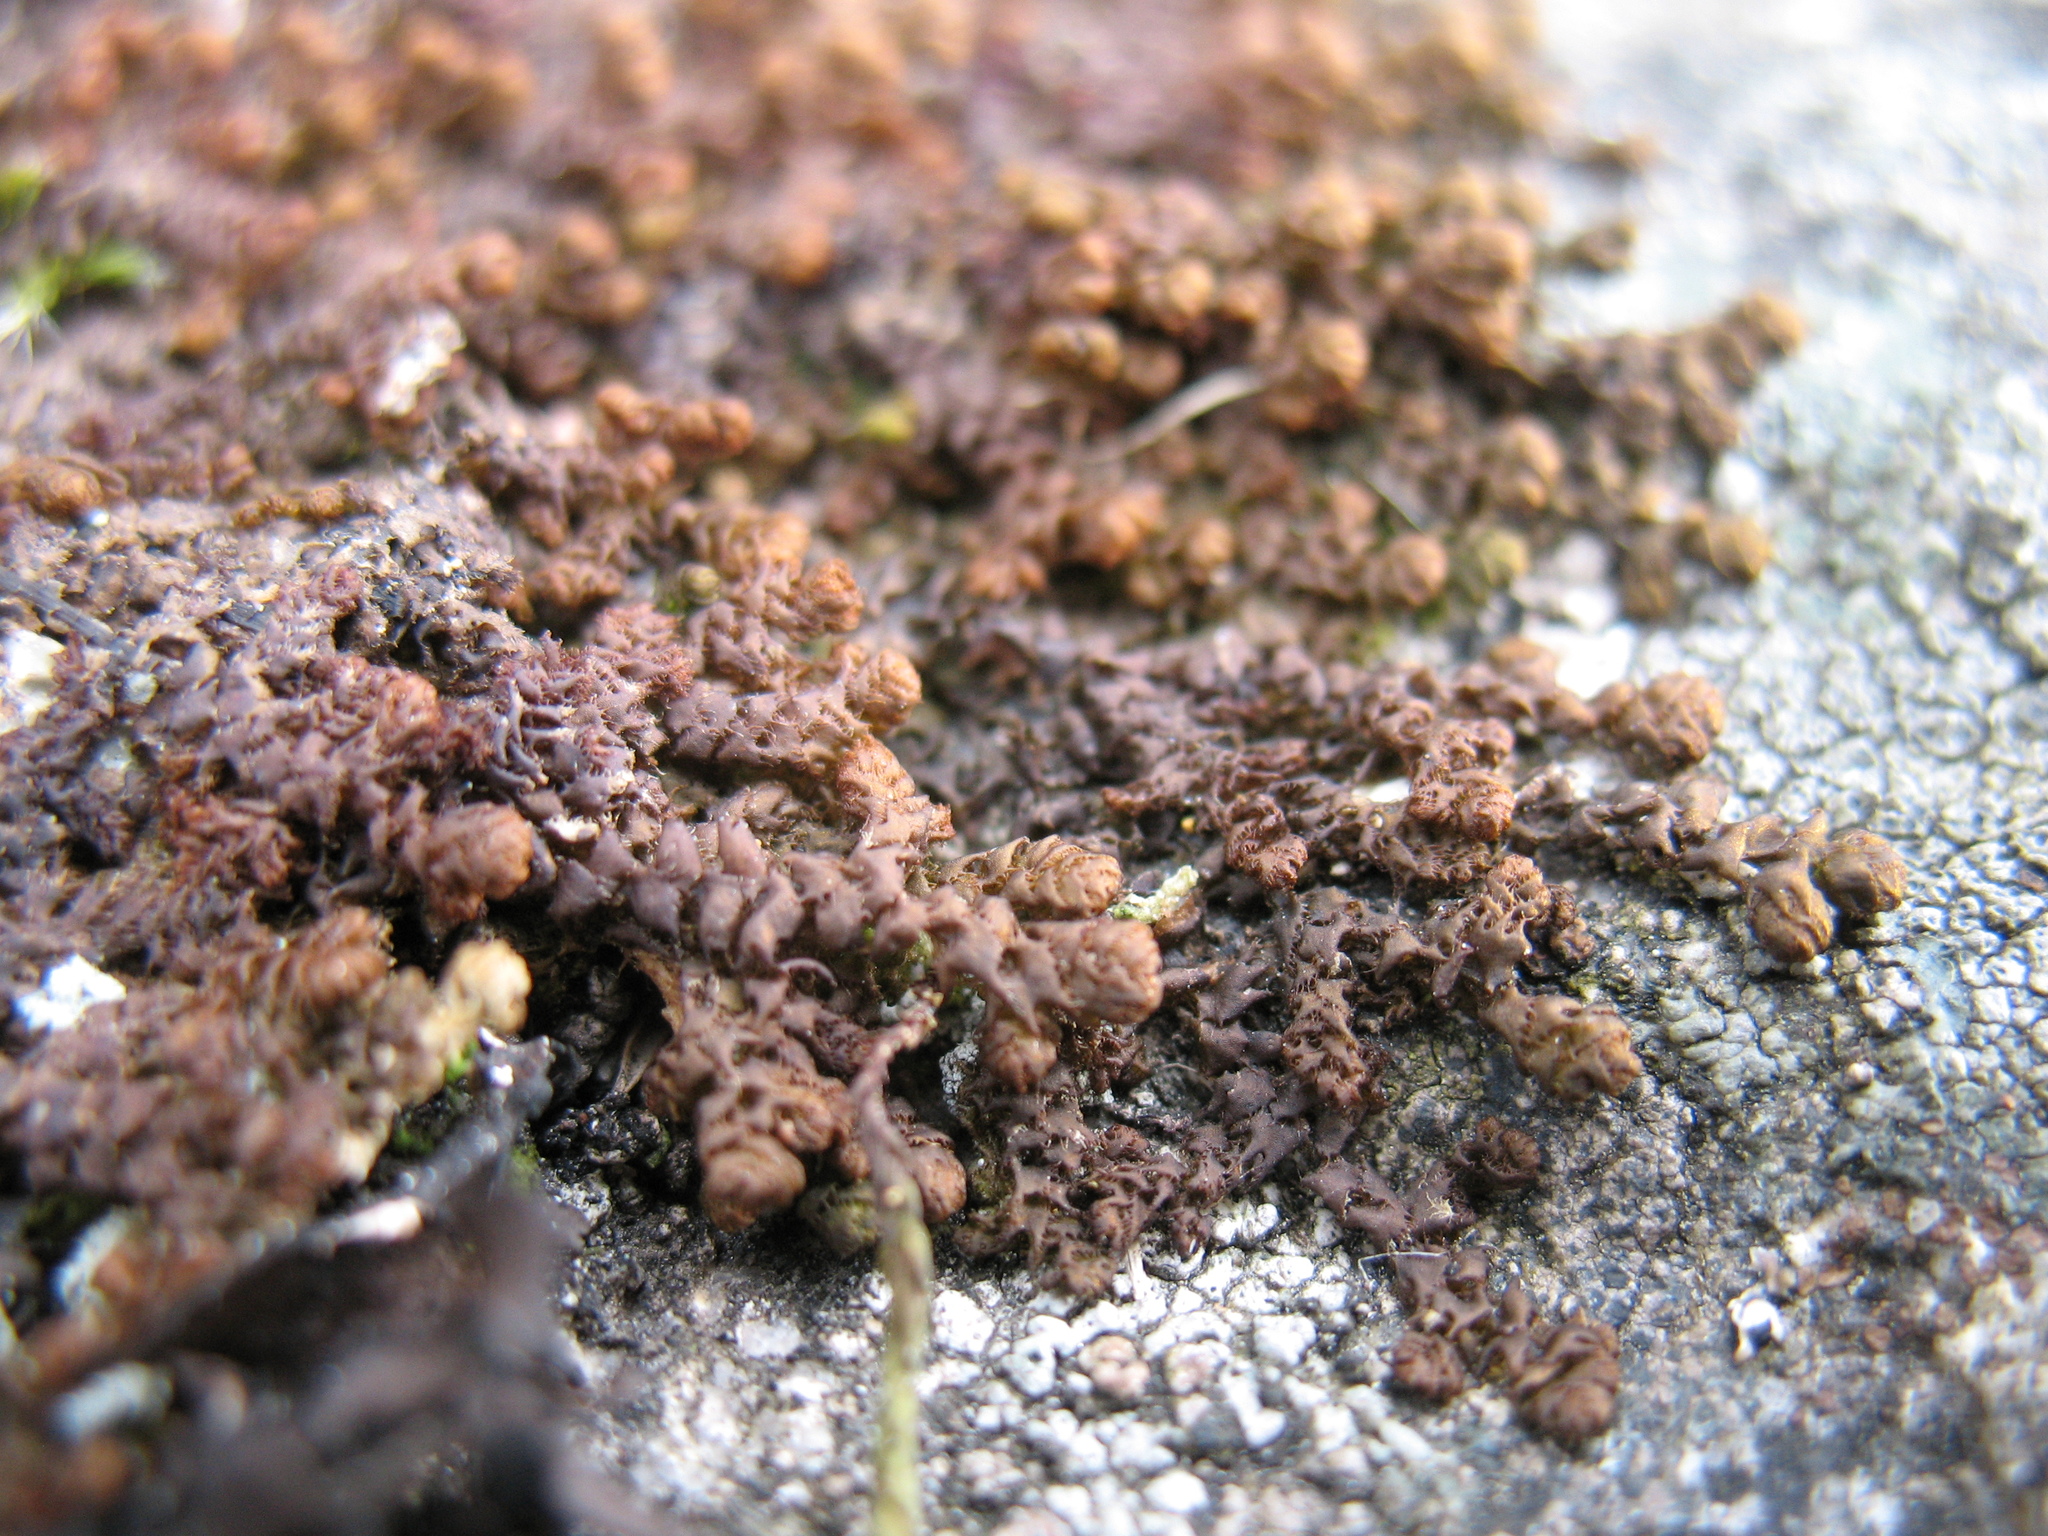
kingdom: Plantae
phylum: Marchantiophyta
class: Jungermanniopsida
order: Ptilidiales
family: Ptilidiaceae
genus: Ptilidium
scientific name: Ptilidium ciliare
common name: Ciliate fringewort
